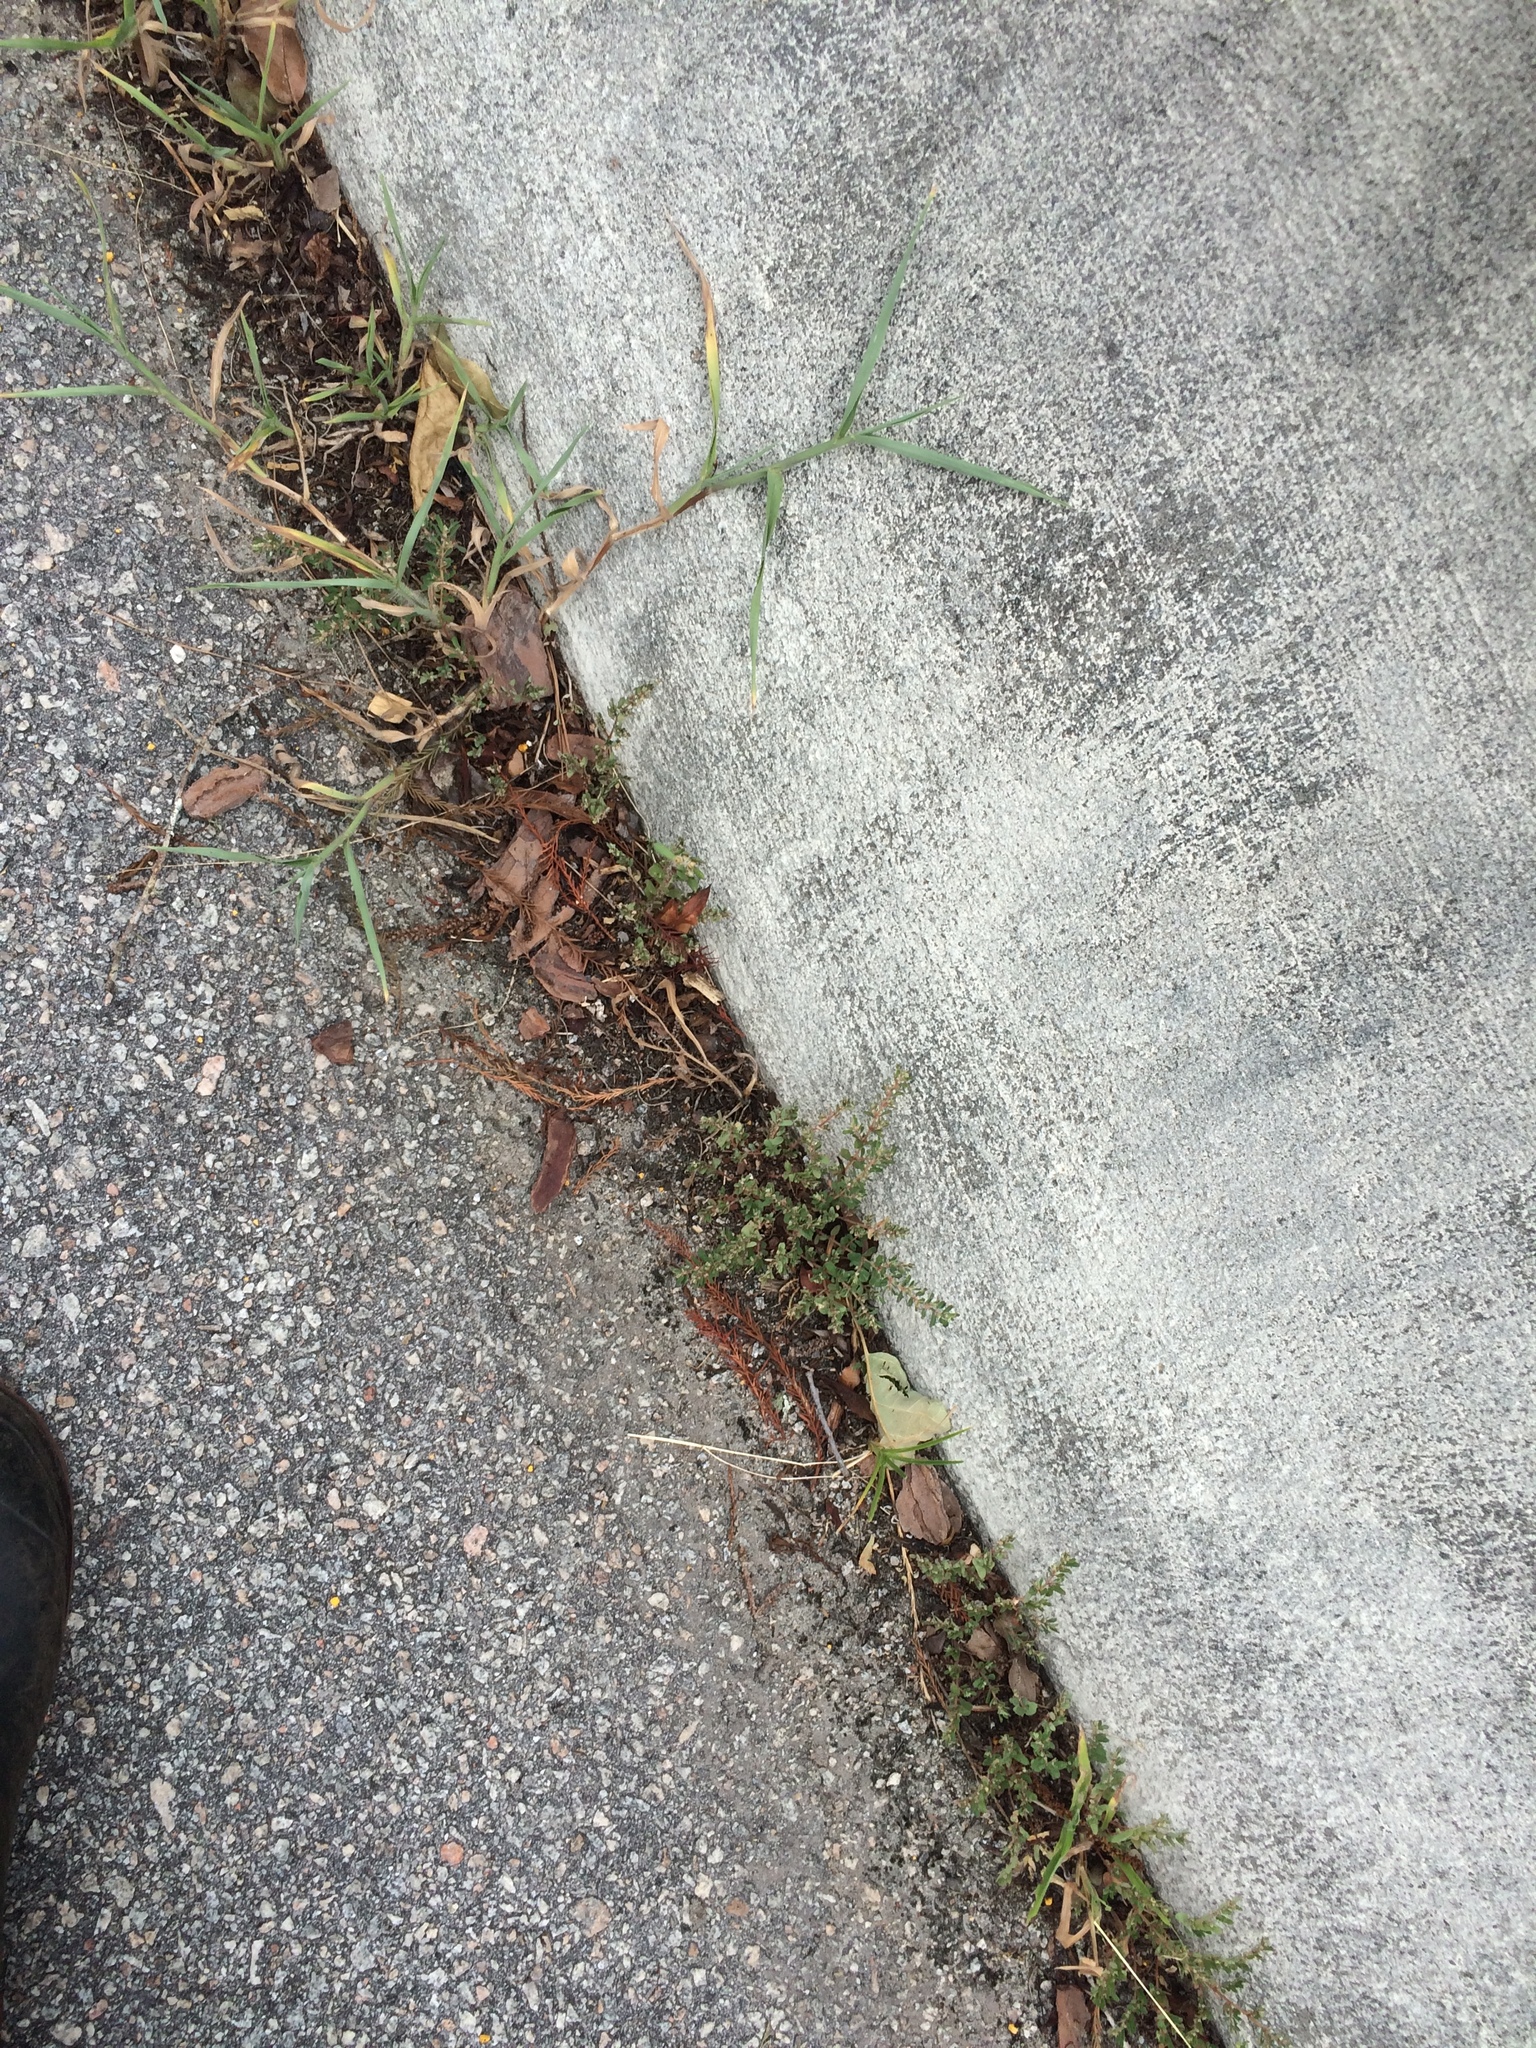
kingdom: Plantae
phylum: Tracheophyta
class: Magnoliopsida
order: Malpighiales
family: Euphorbiaceae
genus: Euphorbia
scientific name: Euphorbia maculata
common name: Spotted spurge
